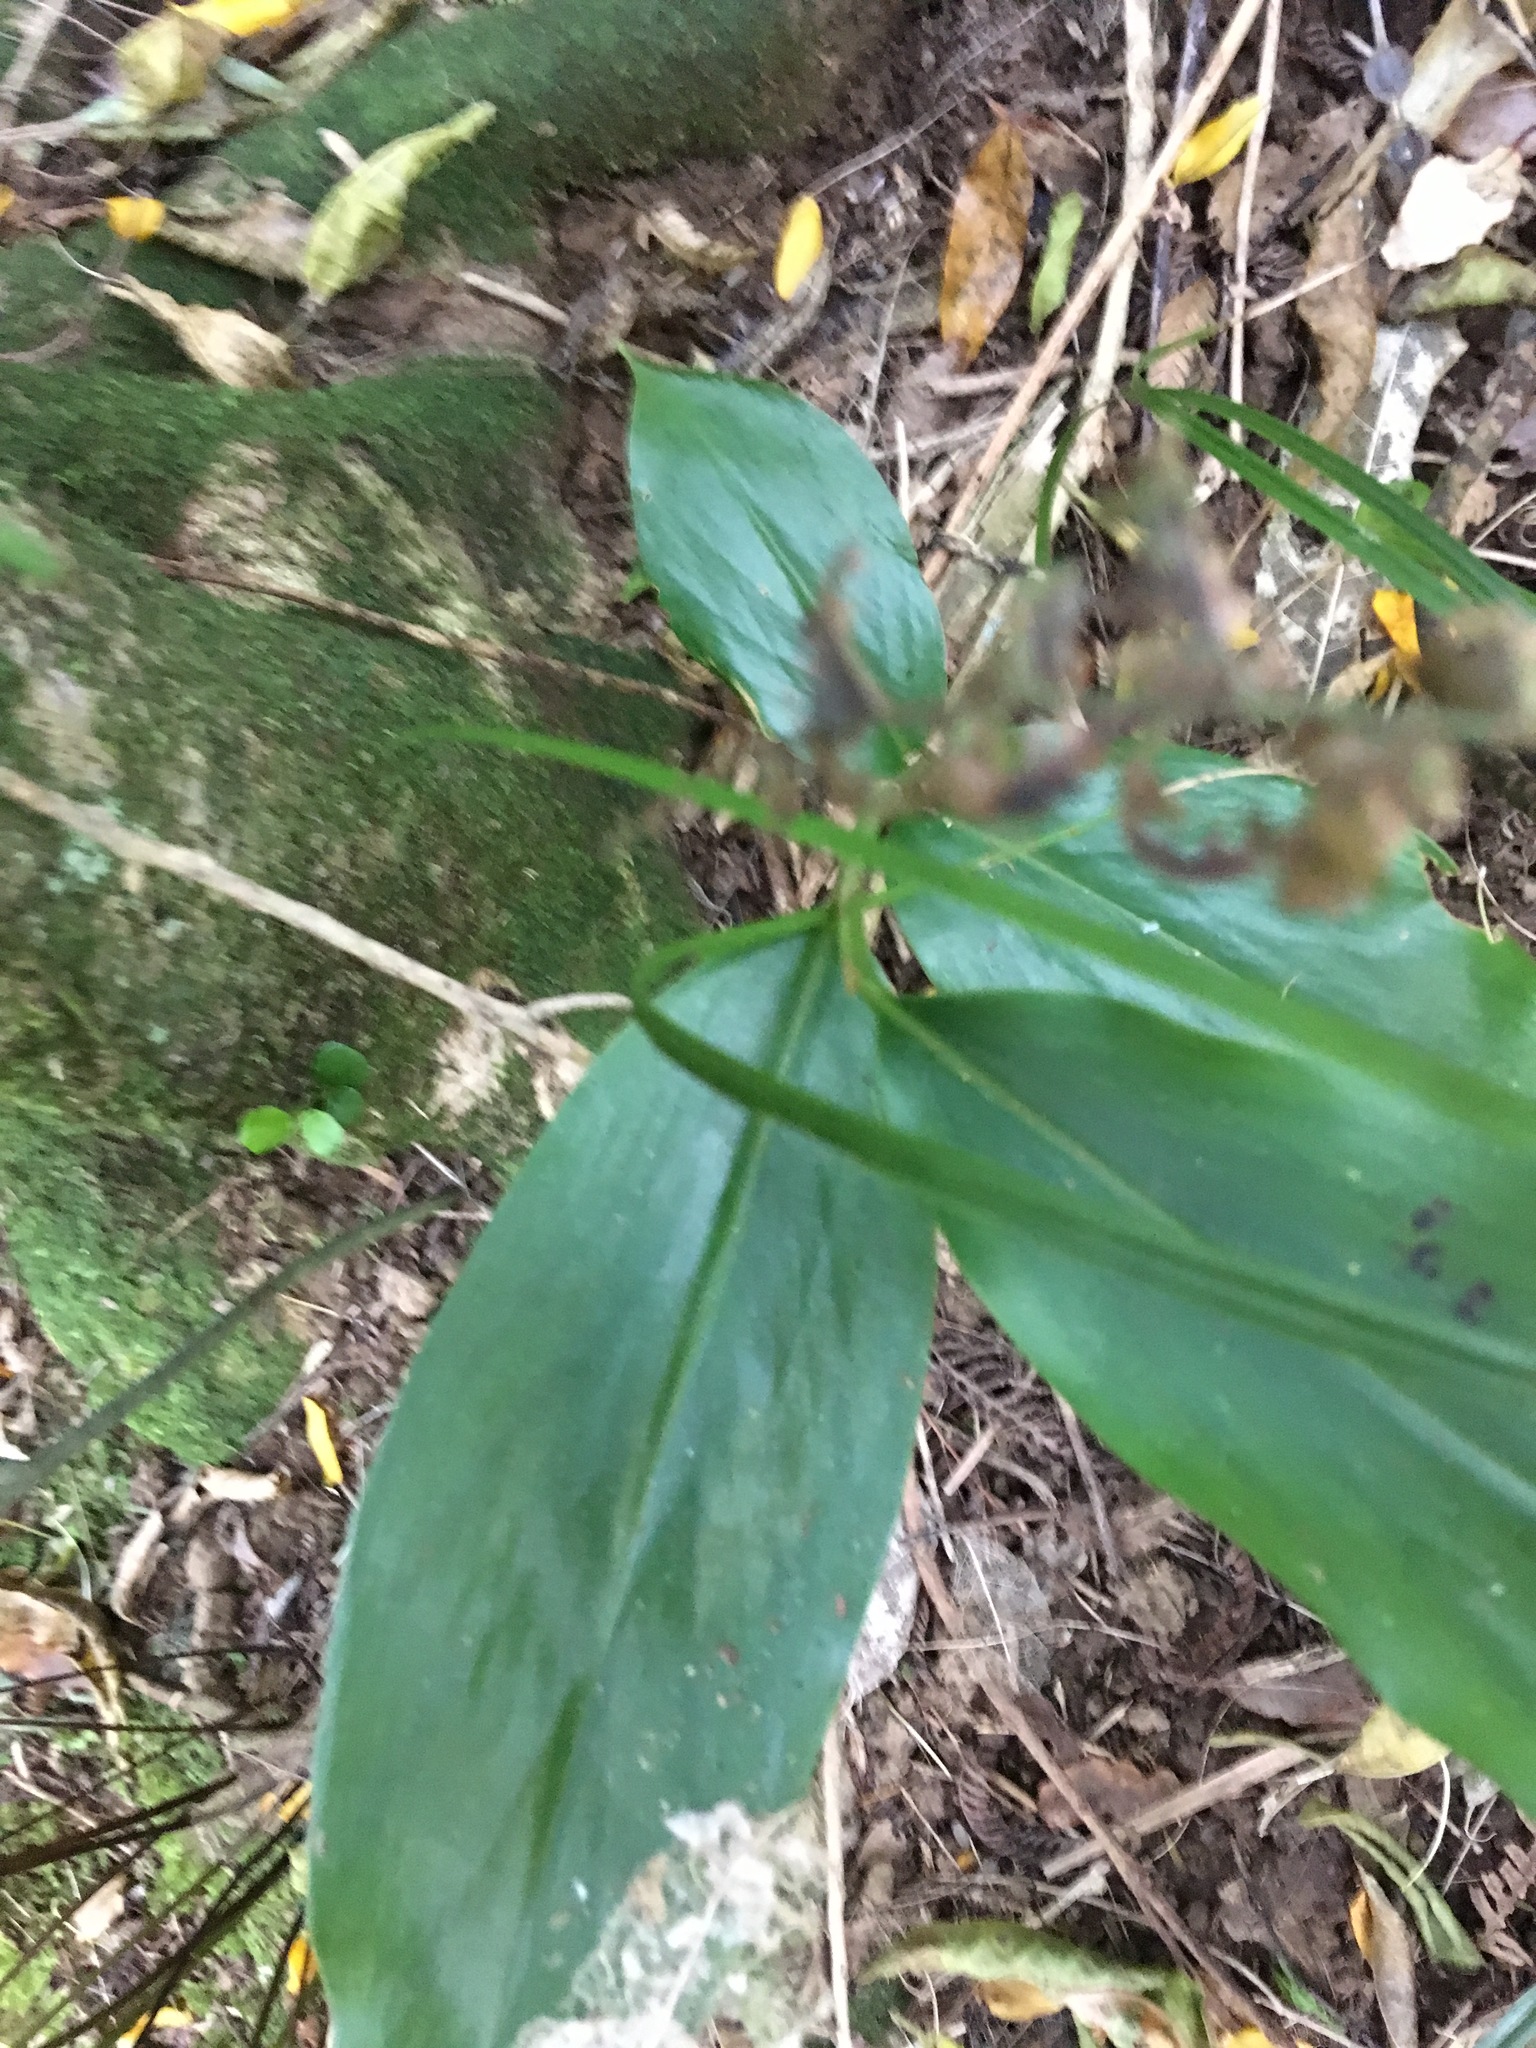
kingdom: Plantae
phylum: Tracheophyta
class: Liliopsida
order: Zingiberales
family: Zingiberaceae
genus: Hedychium
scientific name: Hedychium gardnerianum
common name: Himalayan ginger
